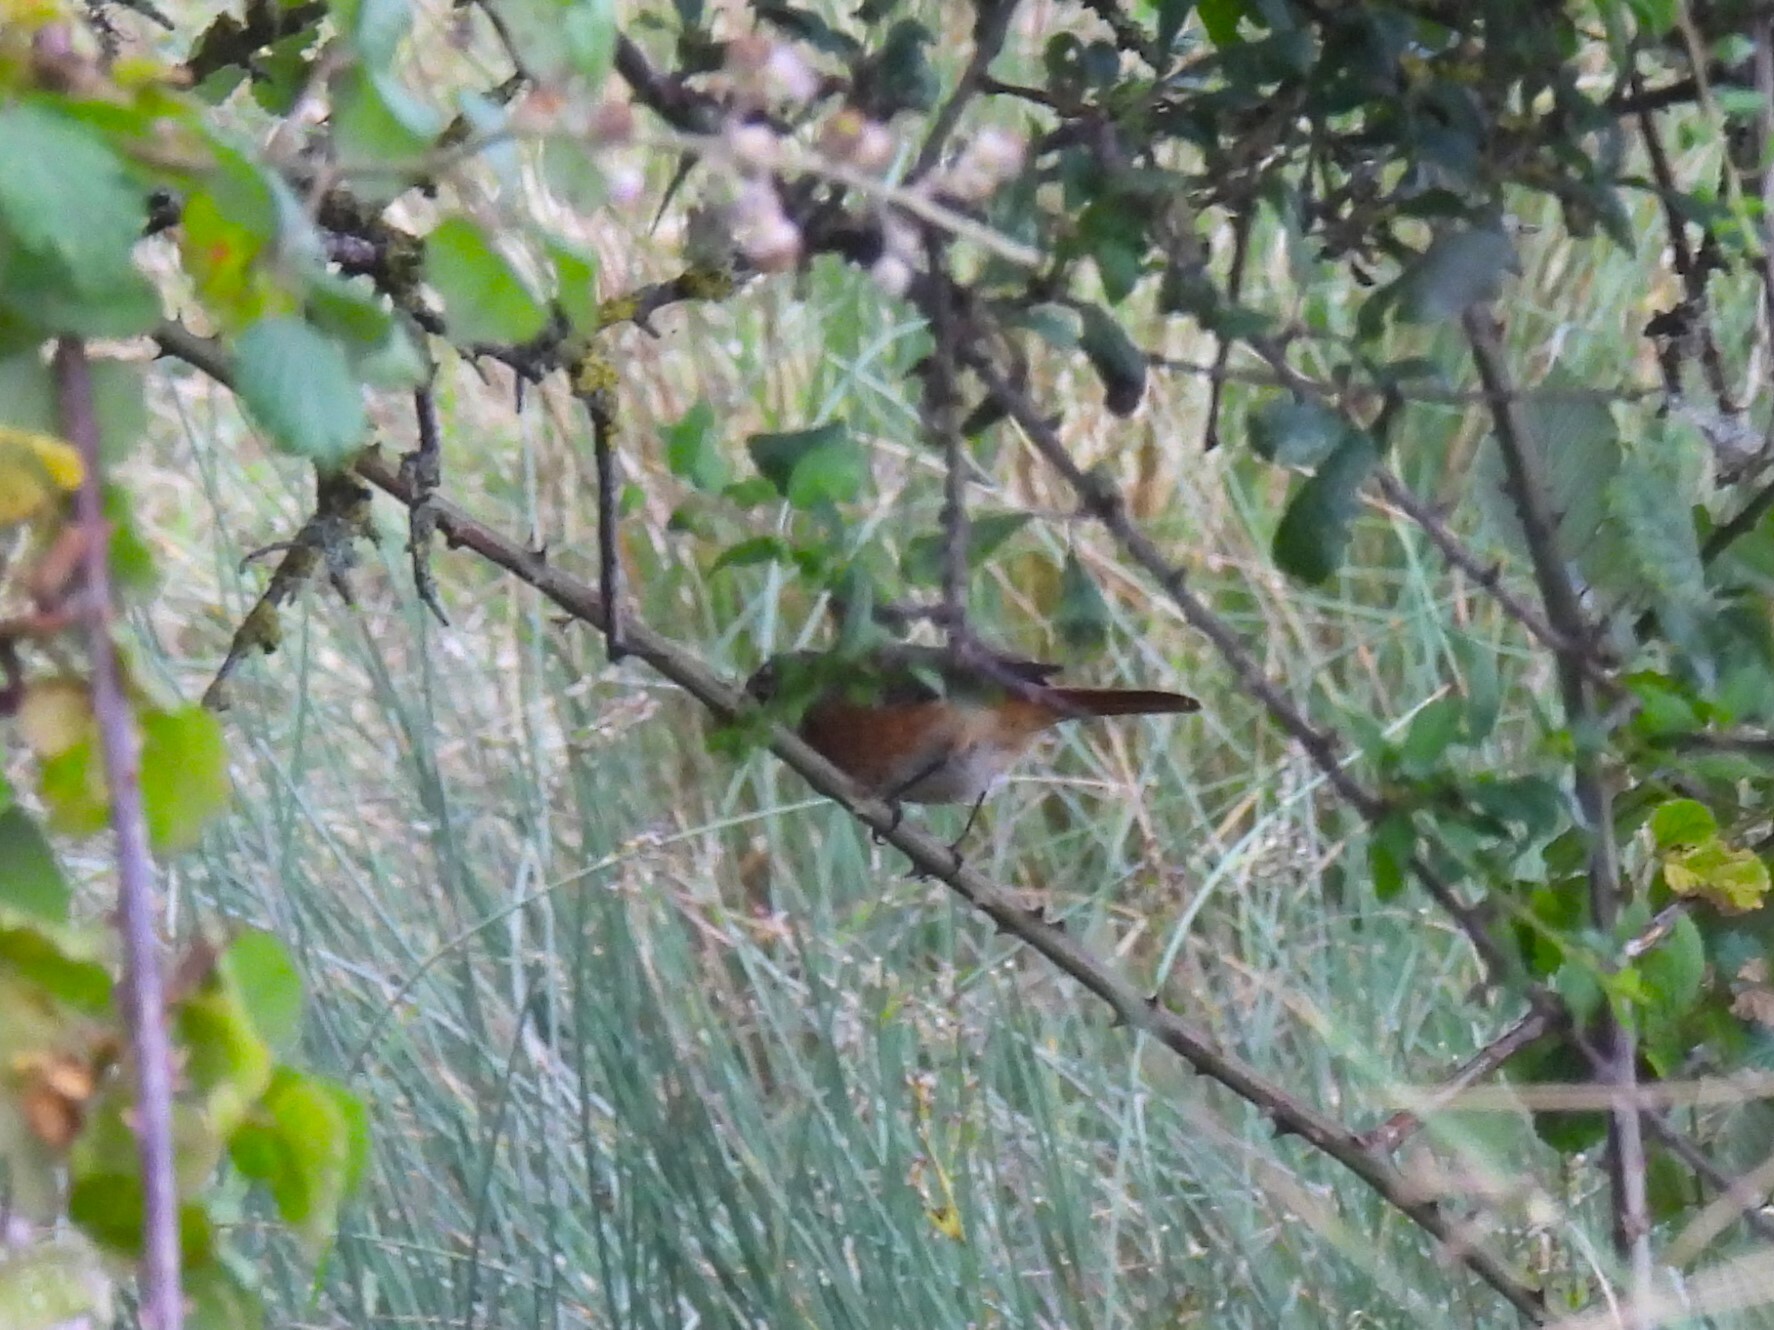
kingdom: Animalia
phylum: Chordata
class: Aves
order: Passeriformes
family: Muscicapidae
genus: Phoenicurus
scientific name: Phoenicurus phoenicurus
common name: Common redstart
